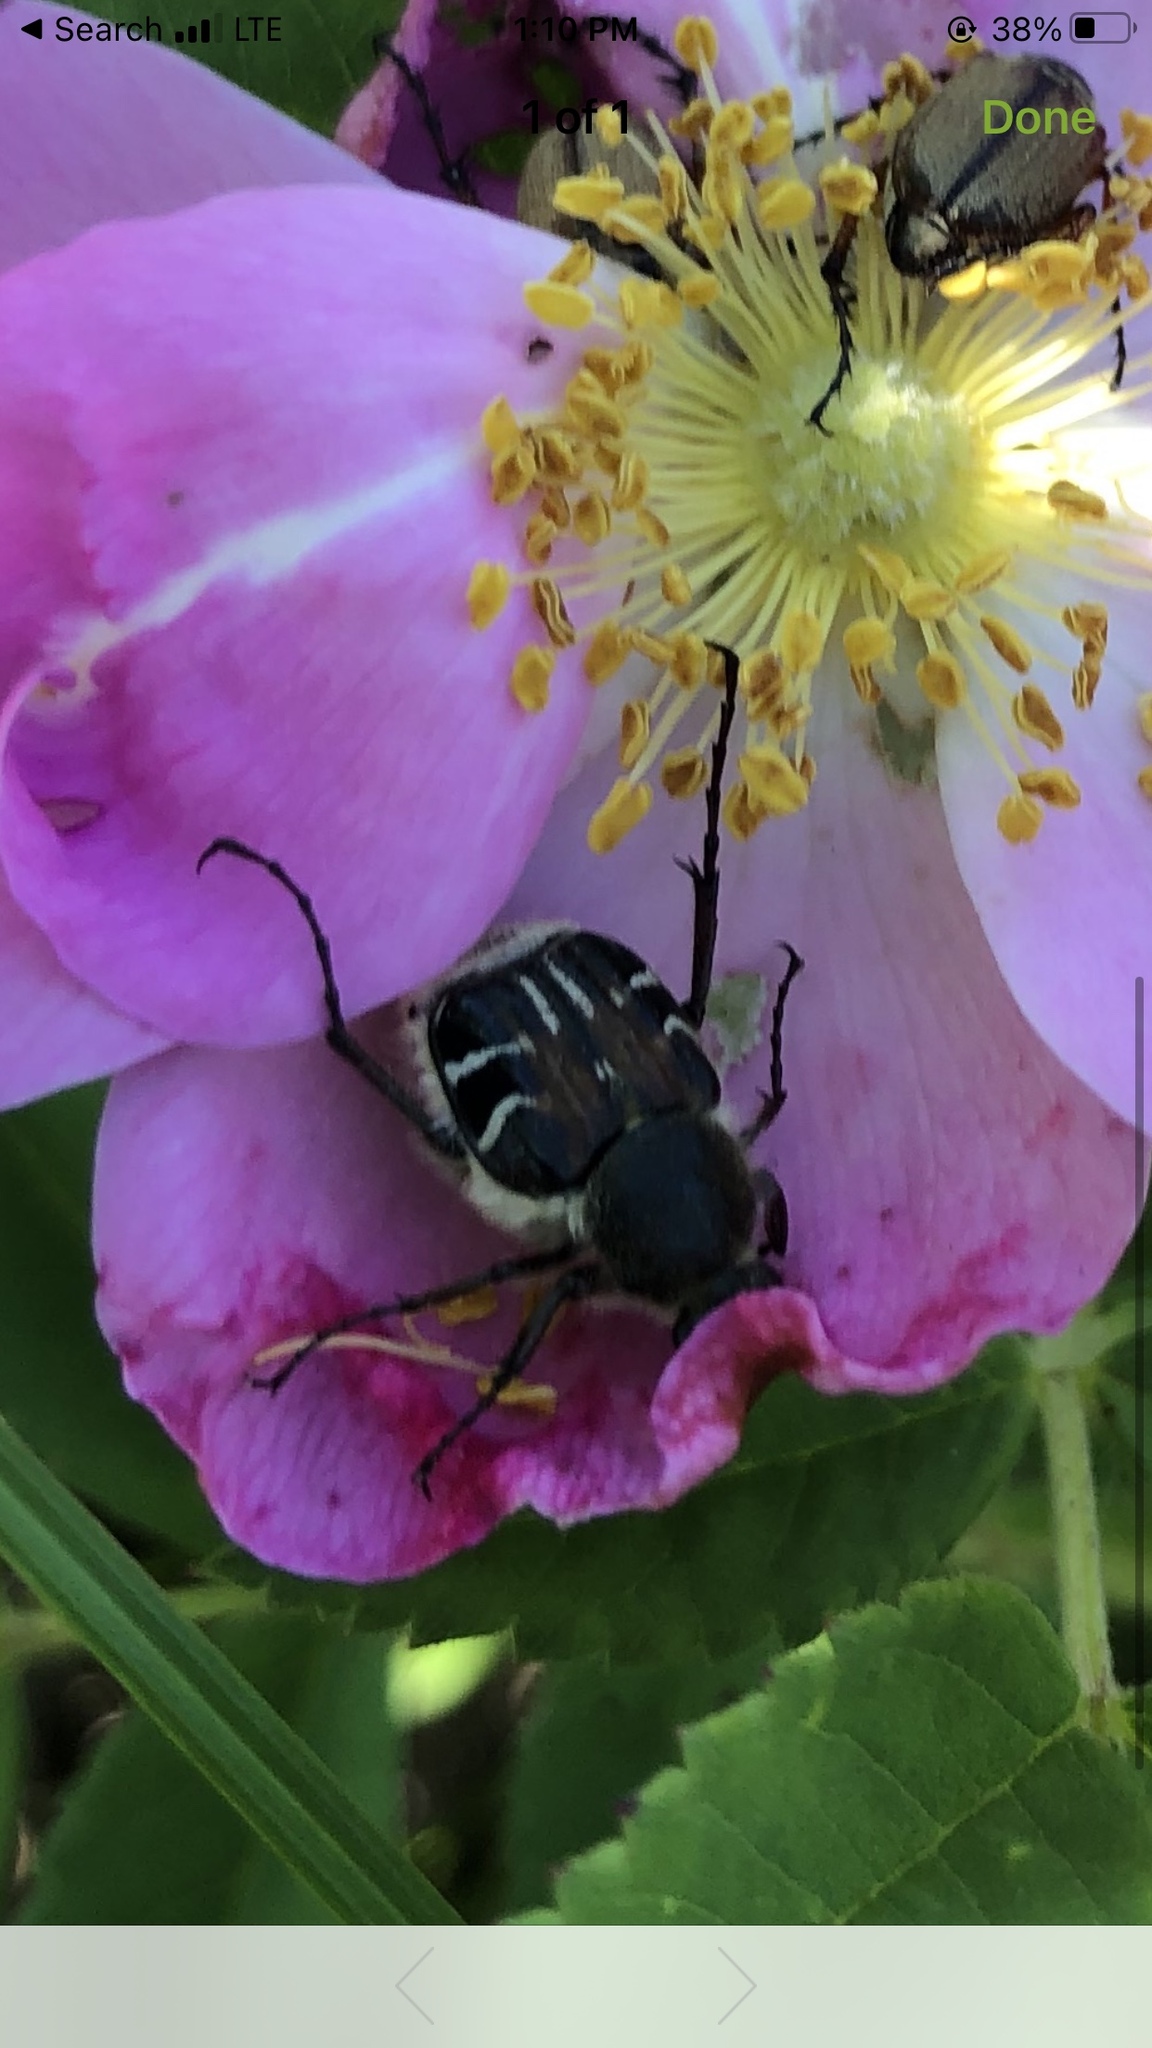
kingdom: Animalia
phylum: Arthropoda
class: Insecta
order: Coleoptera
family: Scarabaeidae
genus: Trichiotinus
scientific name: Trichiotinus assimilis
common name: Bee-mimic beetle
